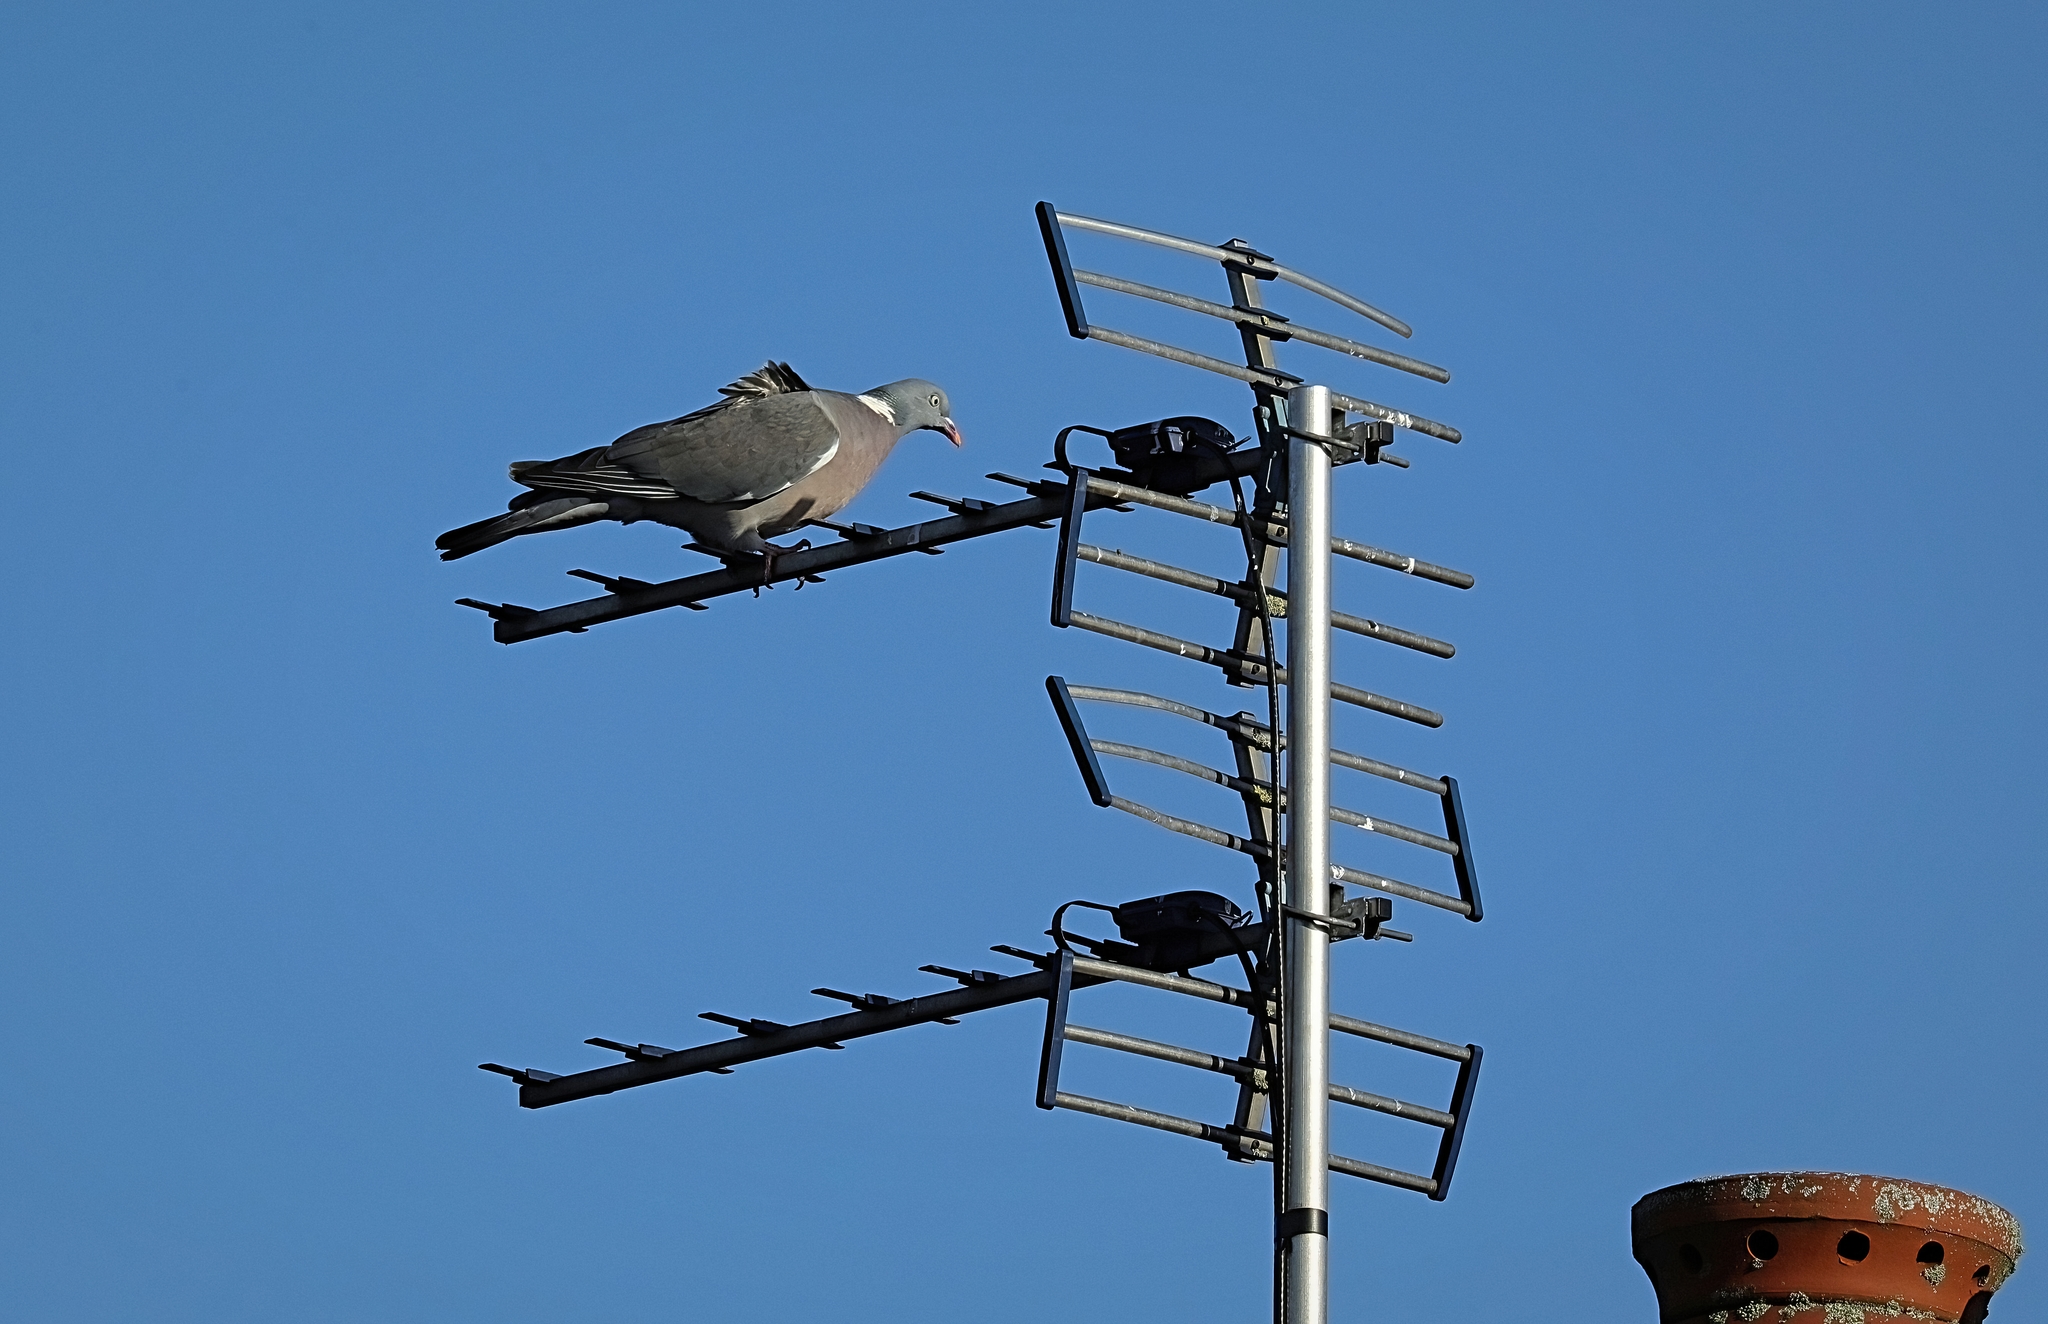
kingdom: Animalia
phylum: Chordata
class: Aves
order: Columbiformes
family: Columbidae
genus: Columba
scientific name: Columba palumbus
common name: Common wood pigeon
